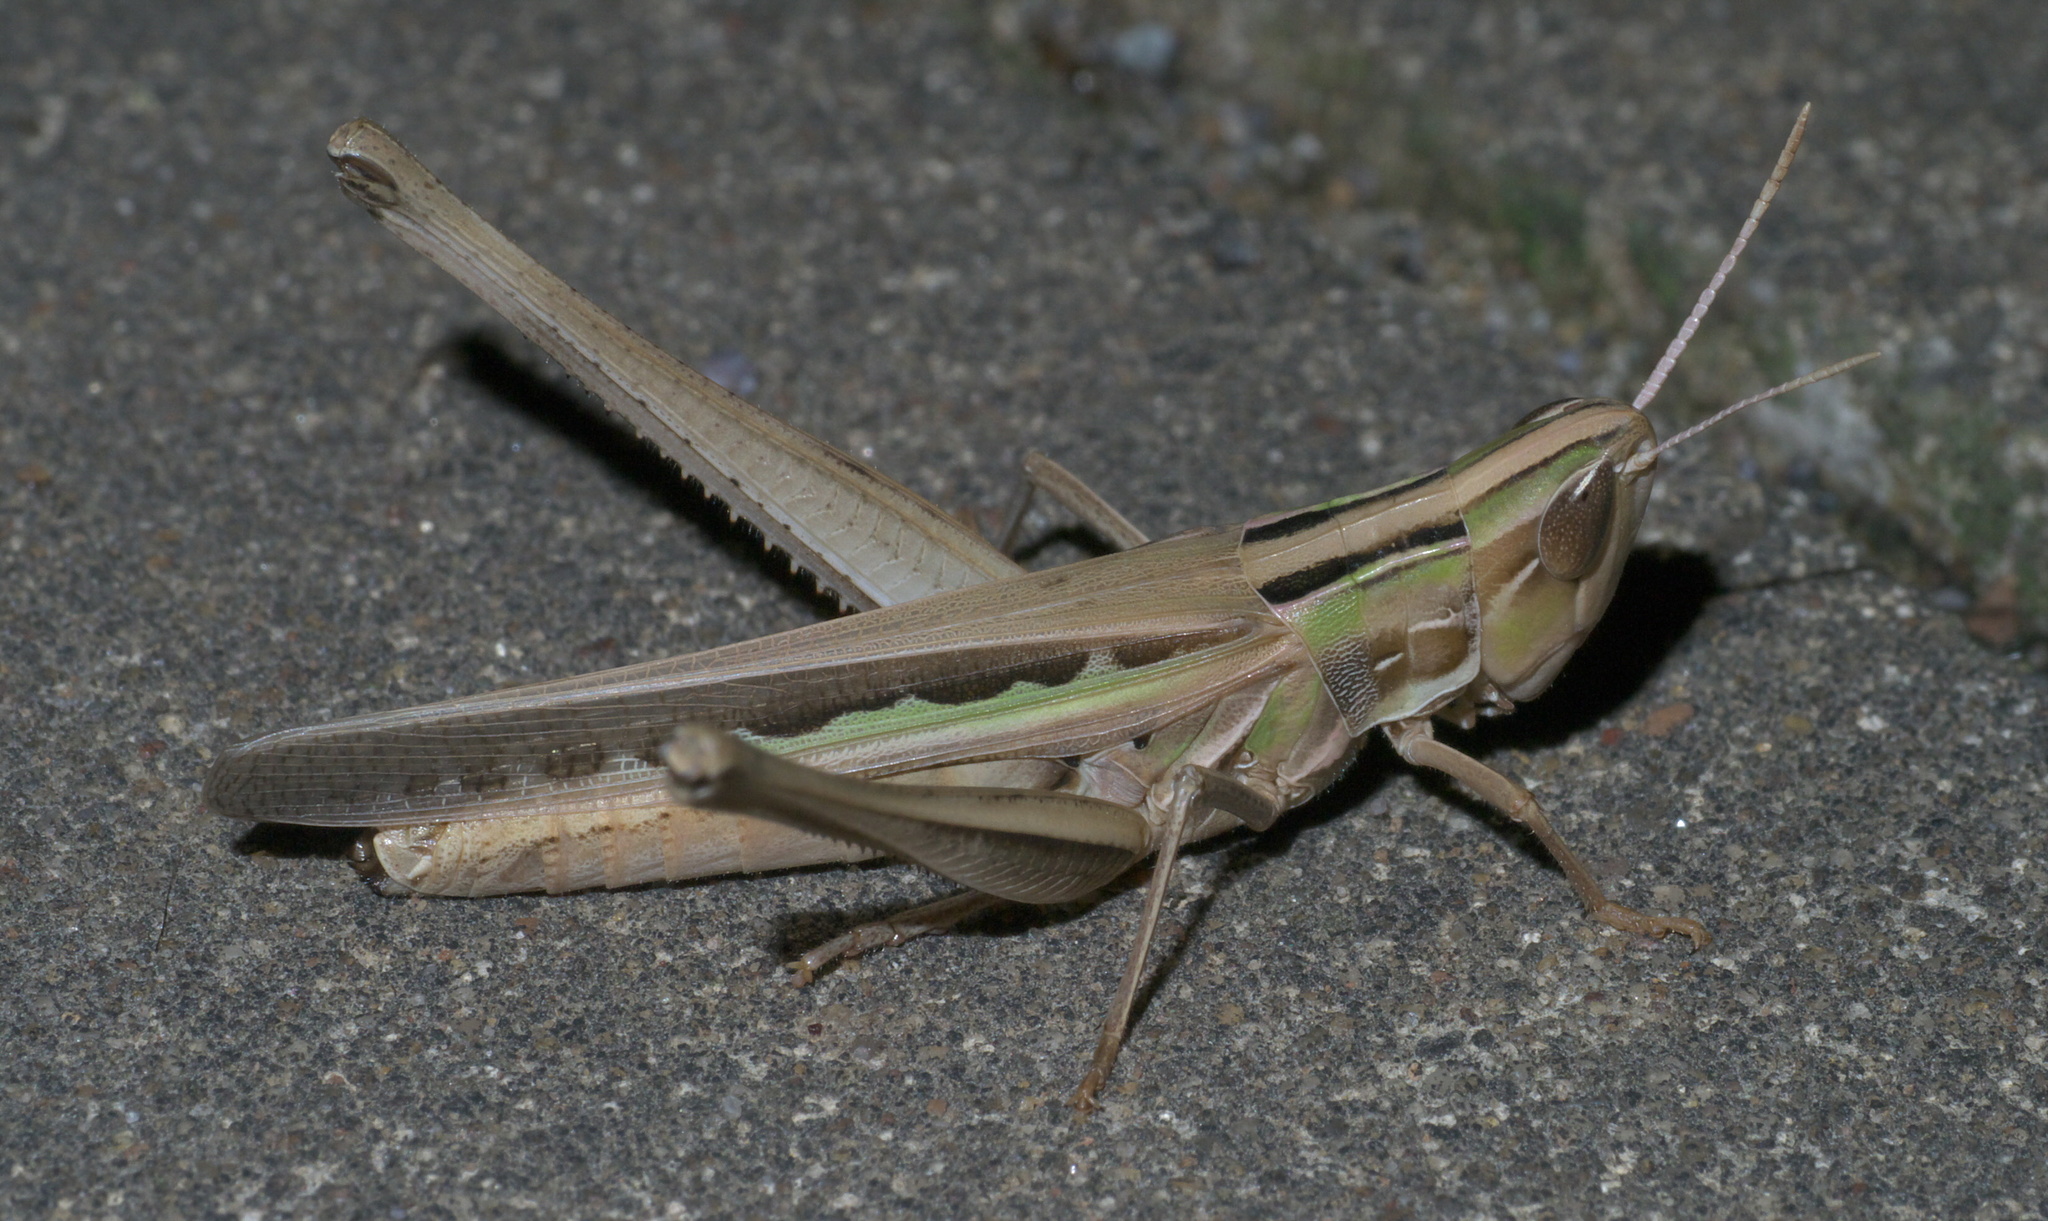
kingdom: Animalia
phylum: Arthropoda
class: Insecta
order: Orthoptera
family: Acrididae
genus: Syrbula
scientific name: Syrbula admirabilis
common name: Handsome grasshopper
